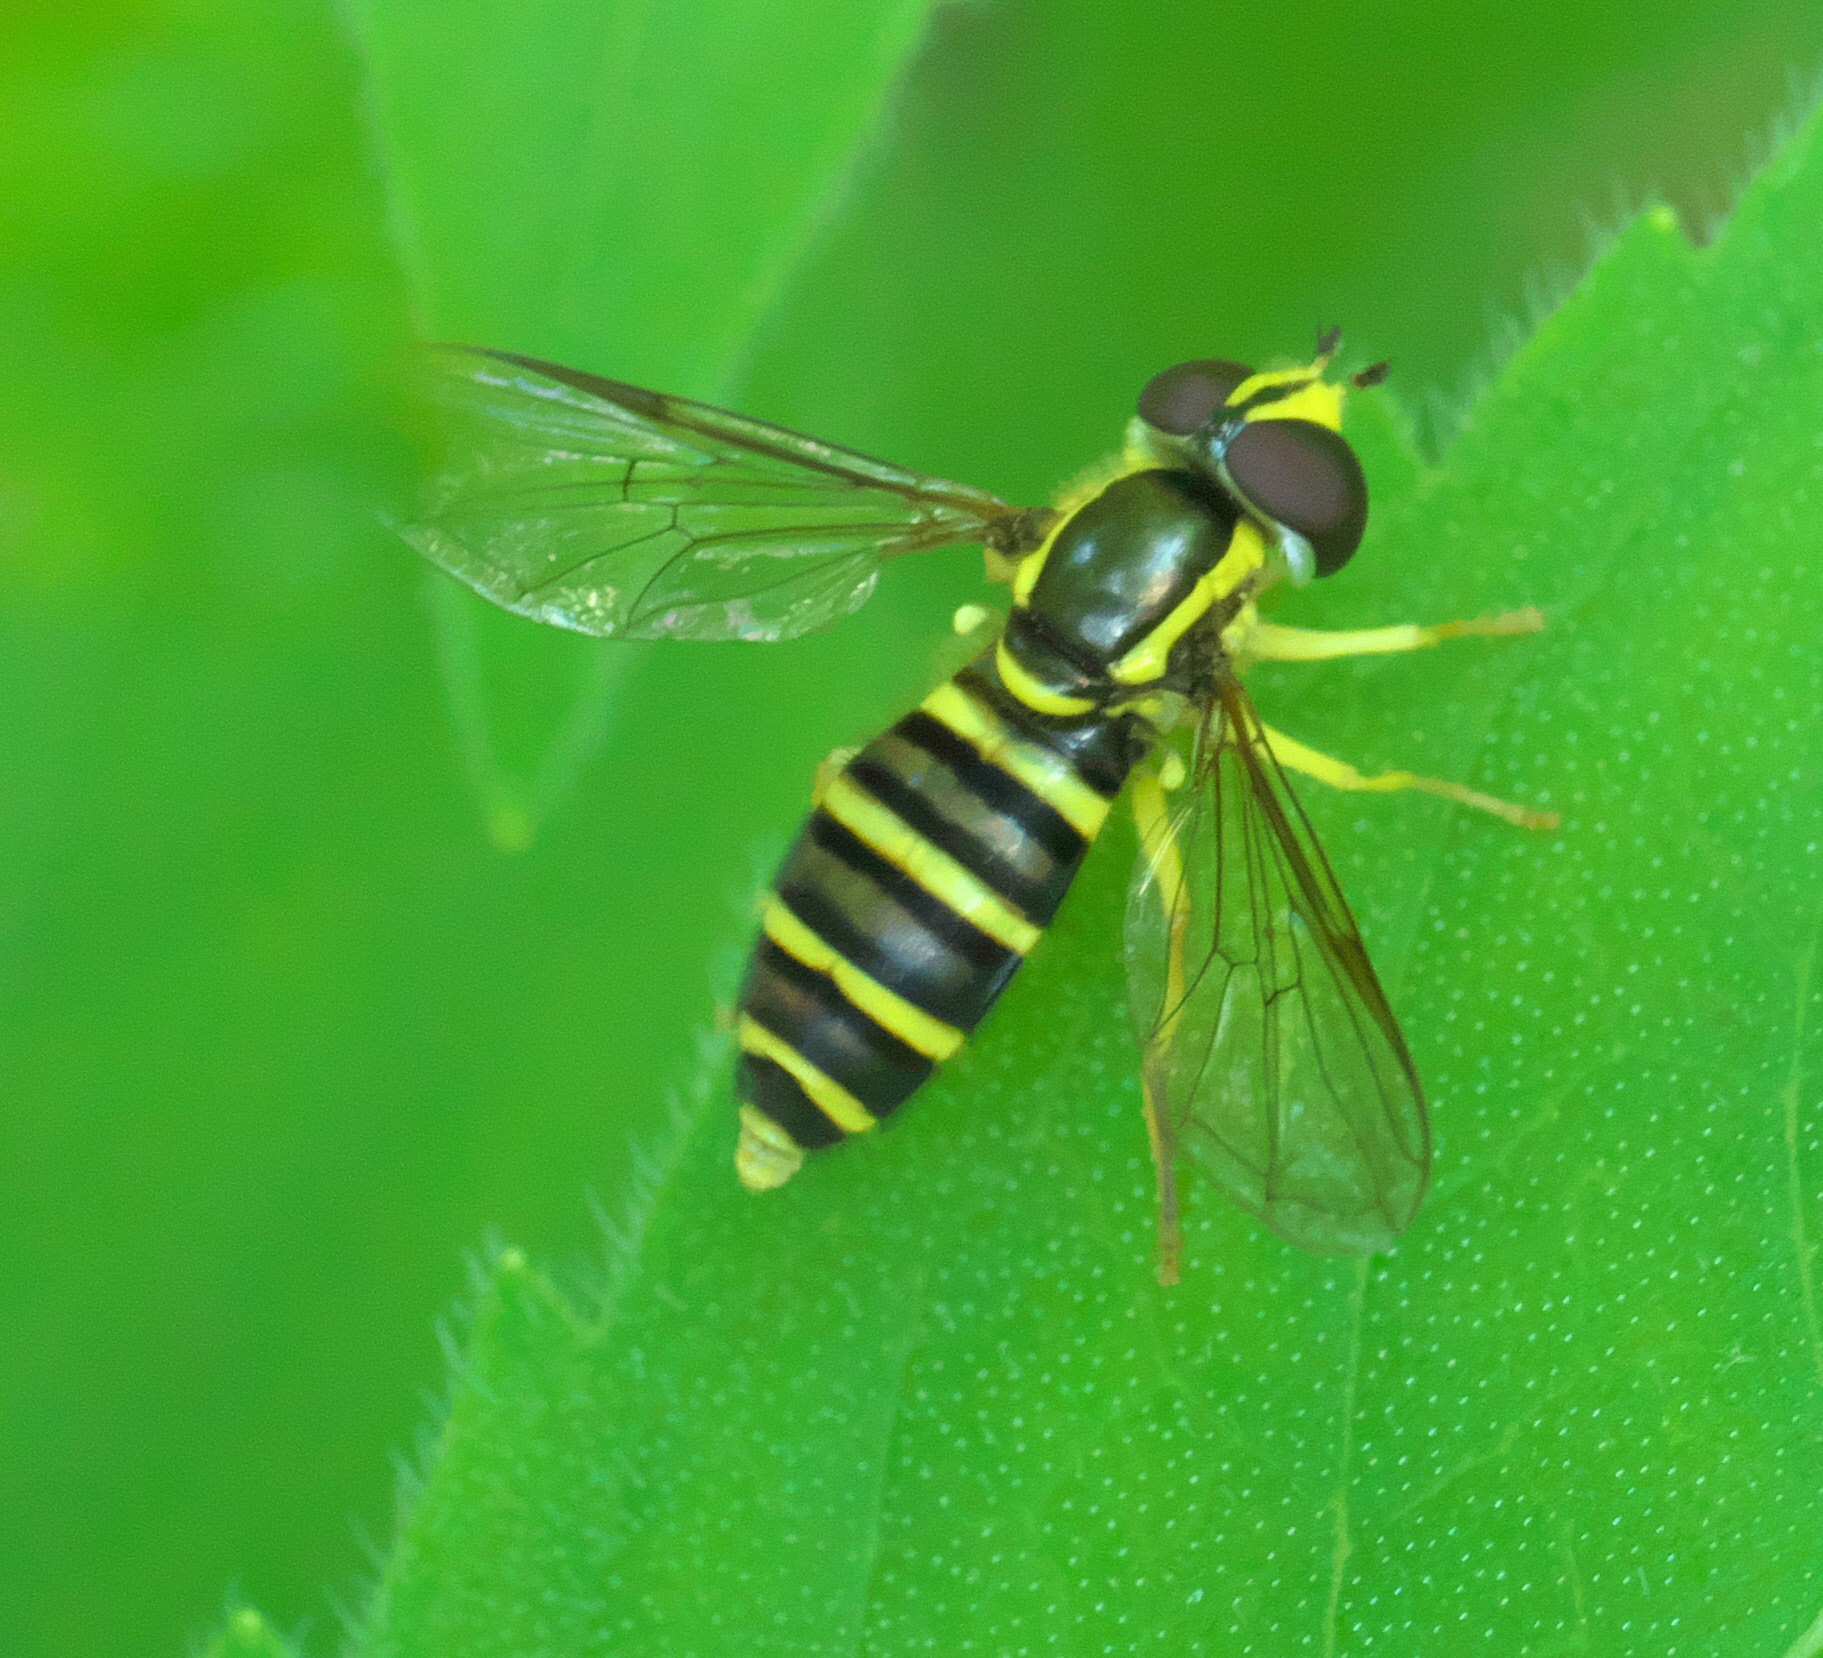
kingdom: Animalia
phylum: Arthropoda
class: Insecta
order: Diptera
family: Syrphidae
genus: Philhelius
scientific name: Philhelius flavipes
